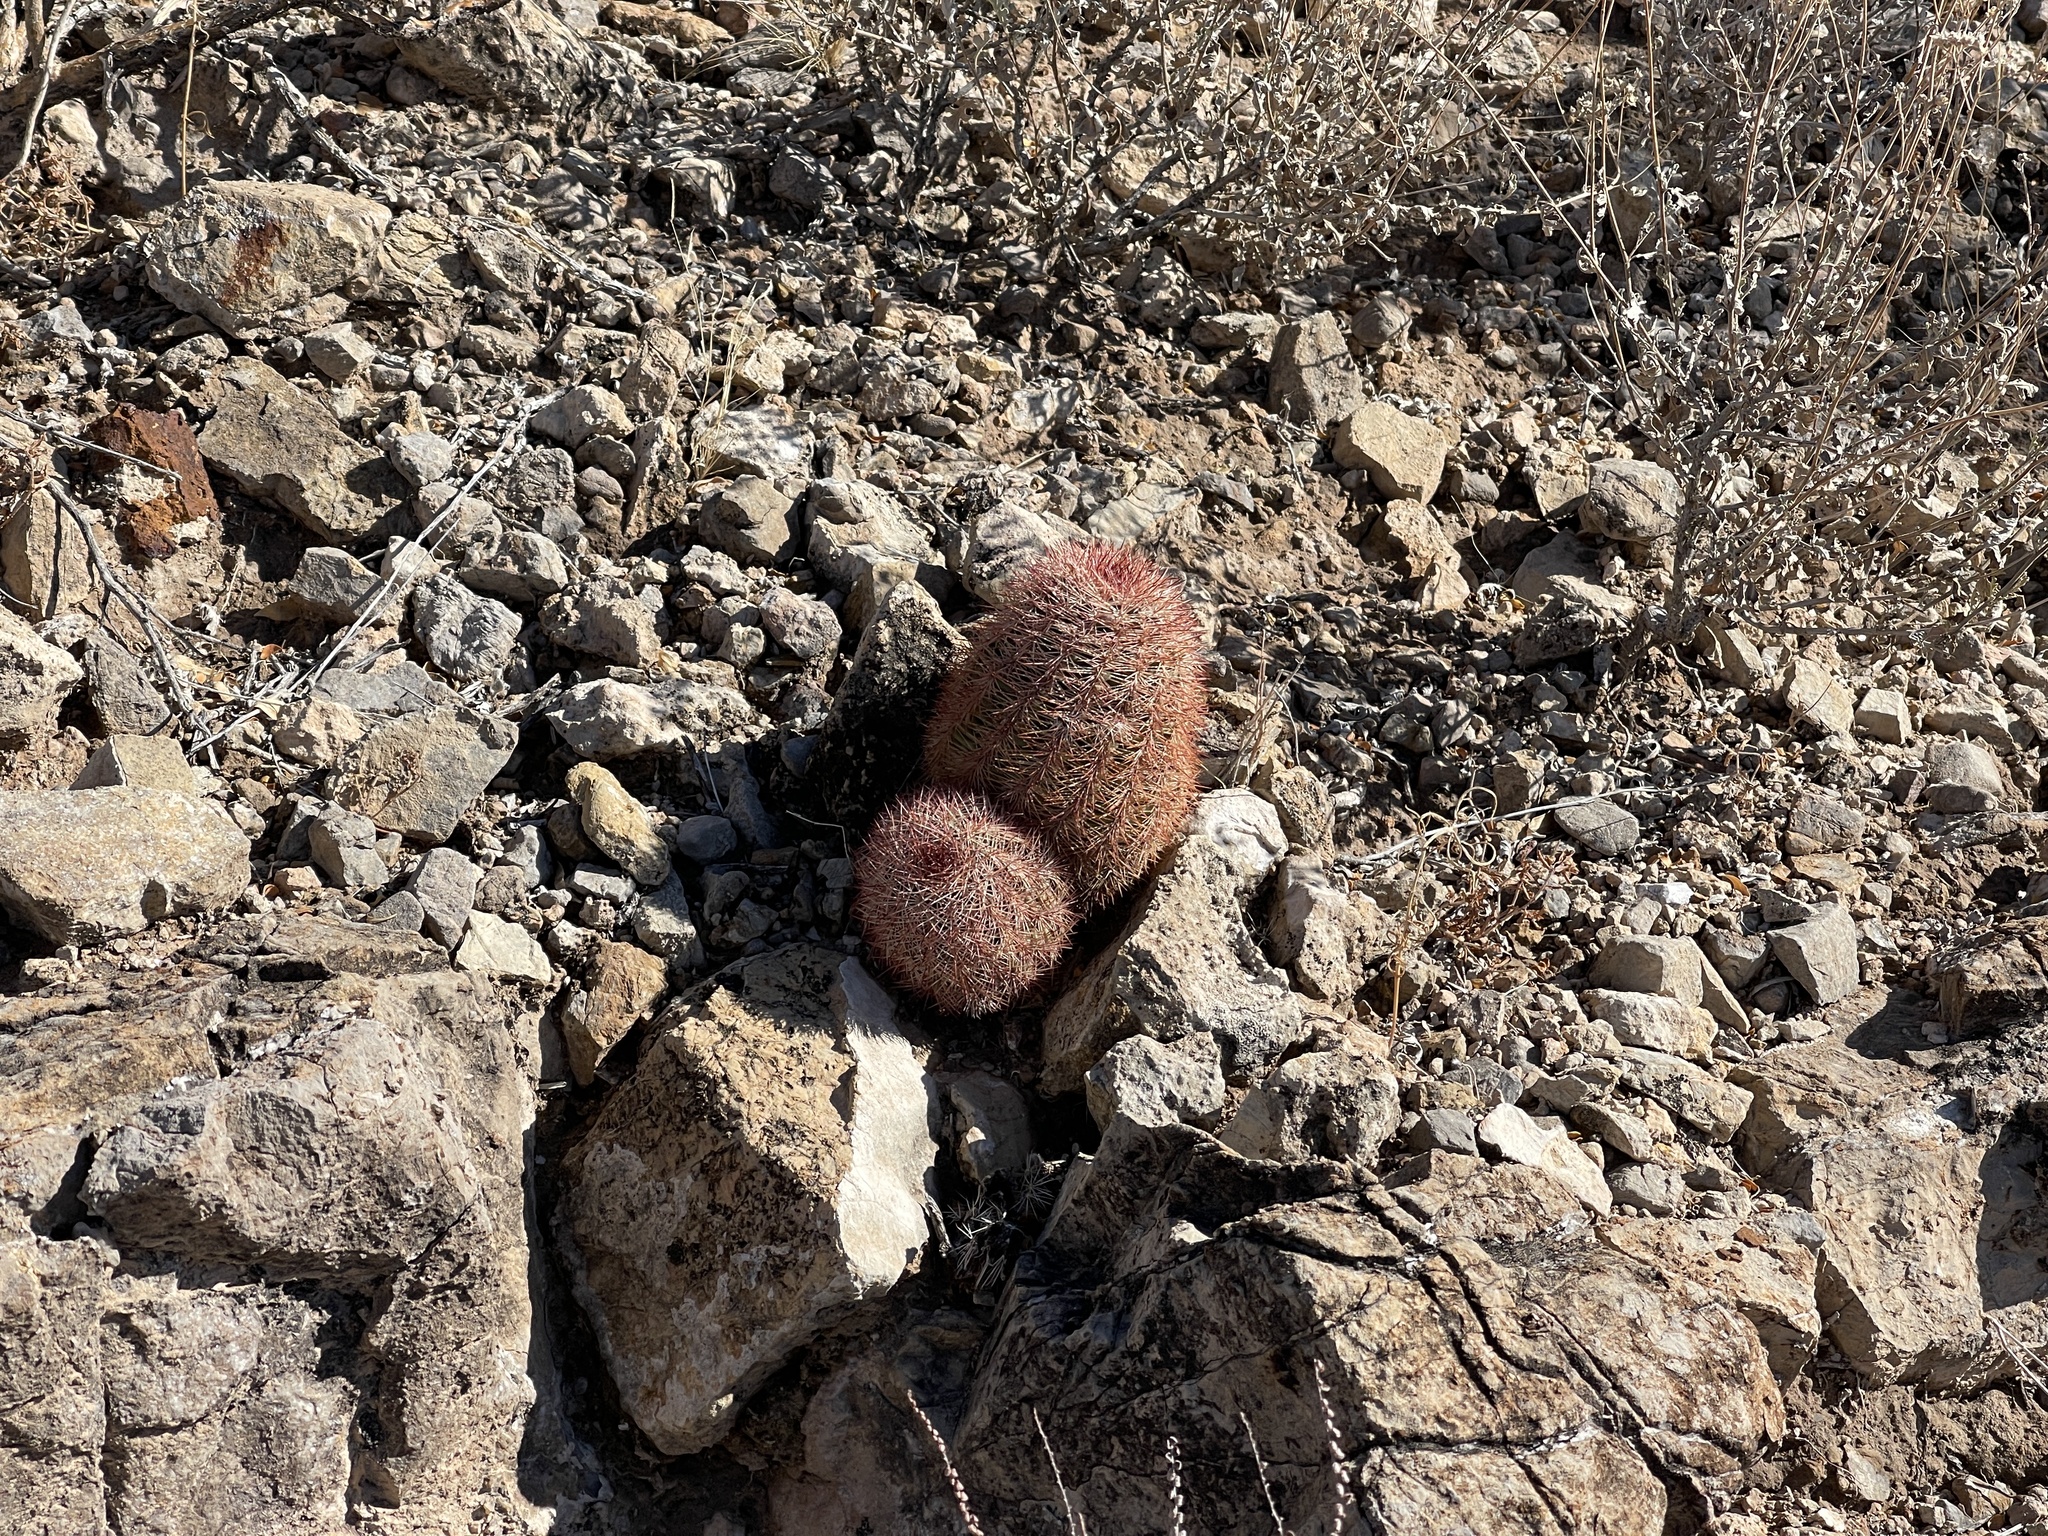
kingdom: Plantae
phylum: Tracheophyta
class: Magnoliopsida
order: Caryophyllales
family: Cactaceae
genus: Echinocereus
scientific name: Echinocereus dasyacanthus
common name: Spiny hedgehog cactus
